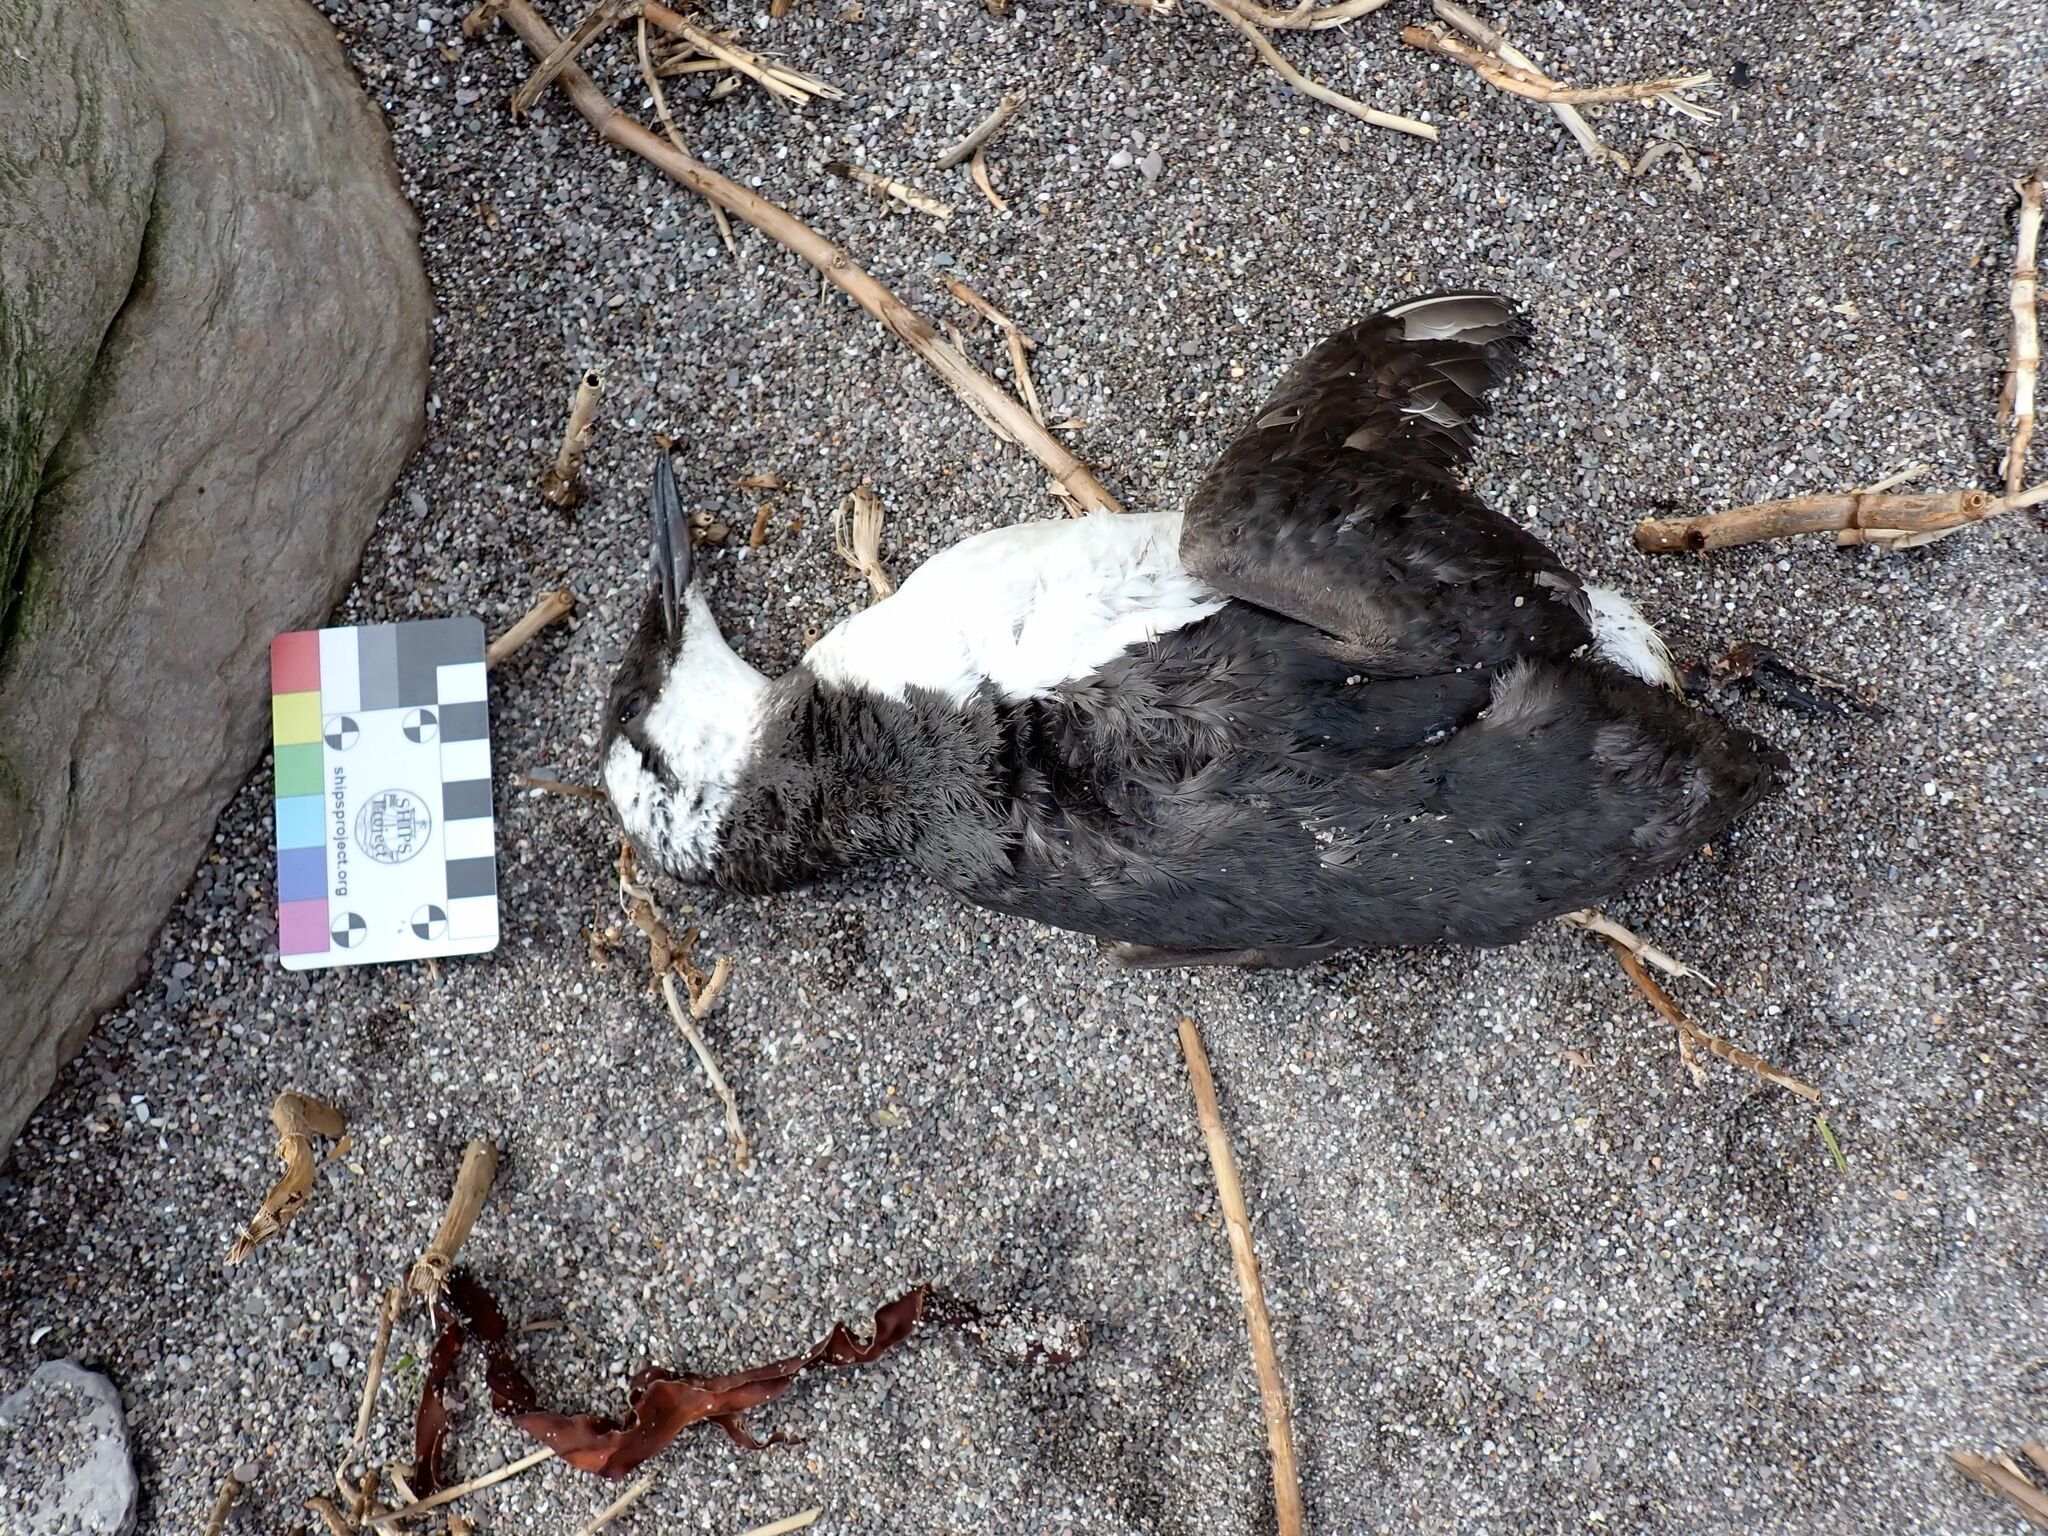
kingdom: Animalia
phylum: Chordata
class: Aves
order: Charadriiformes
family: Alcidae
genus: Uria
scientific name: Uria aalge
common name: Common murre
